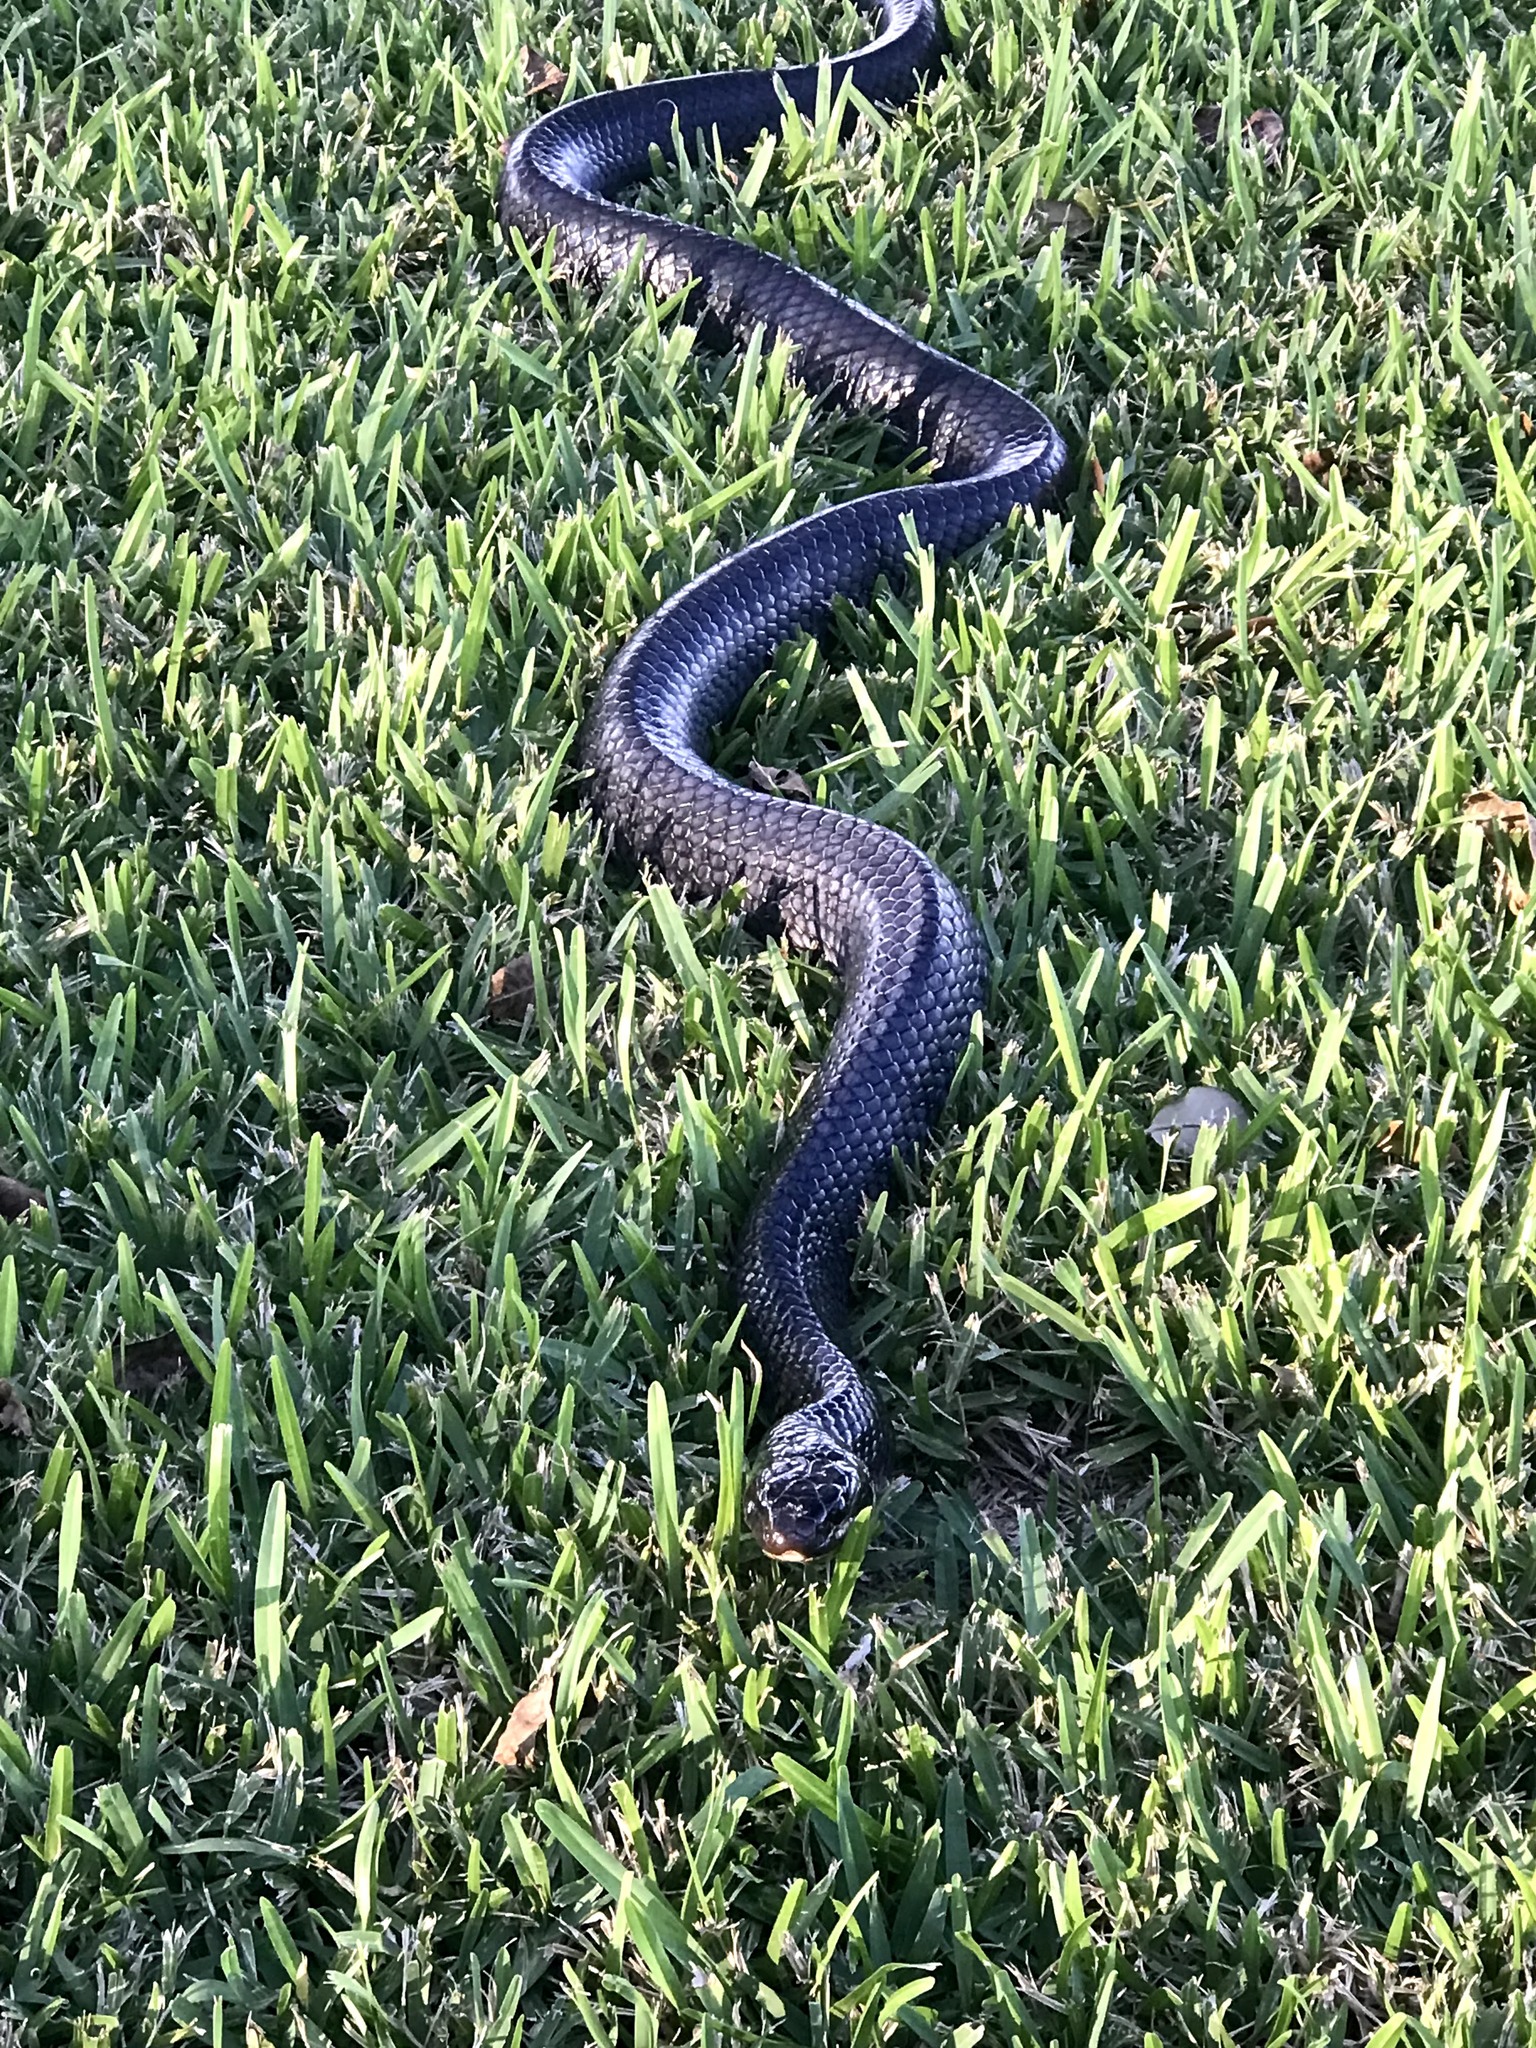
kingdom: Animalia
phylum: Chordata
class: Squamata
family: Colubridae
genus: Drymarchon
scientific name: Drymarchon melanurus
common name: Central american indigo snake
